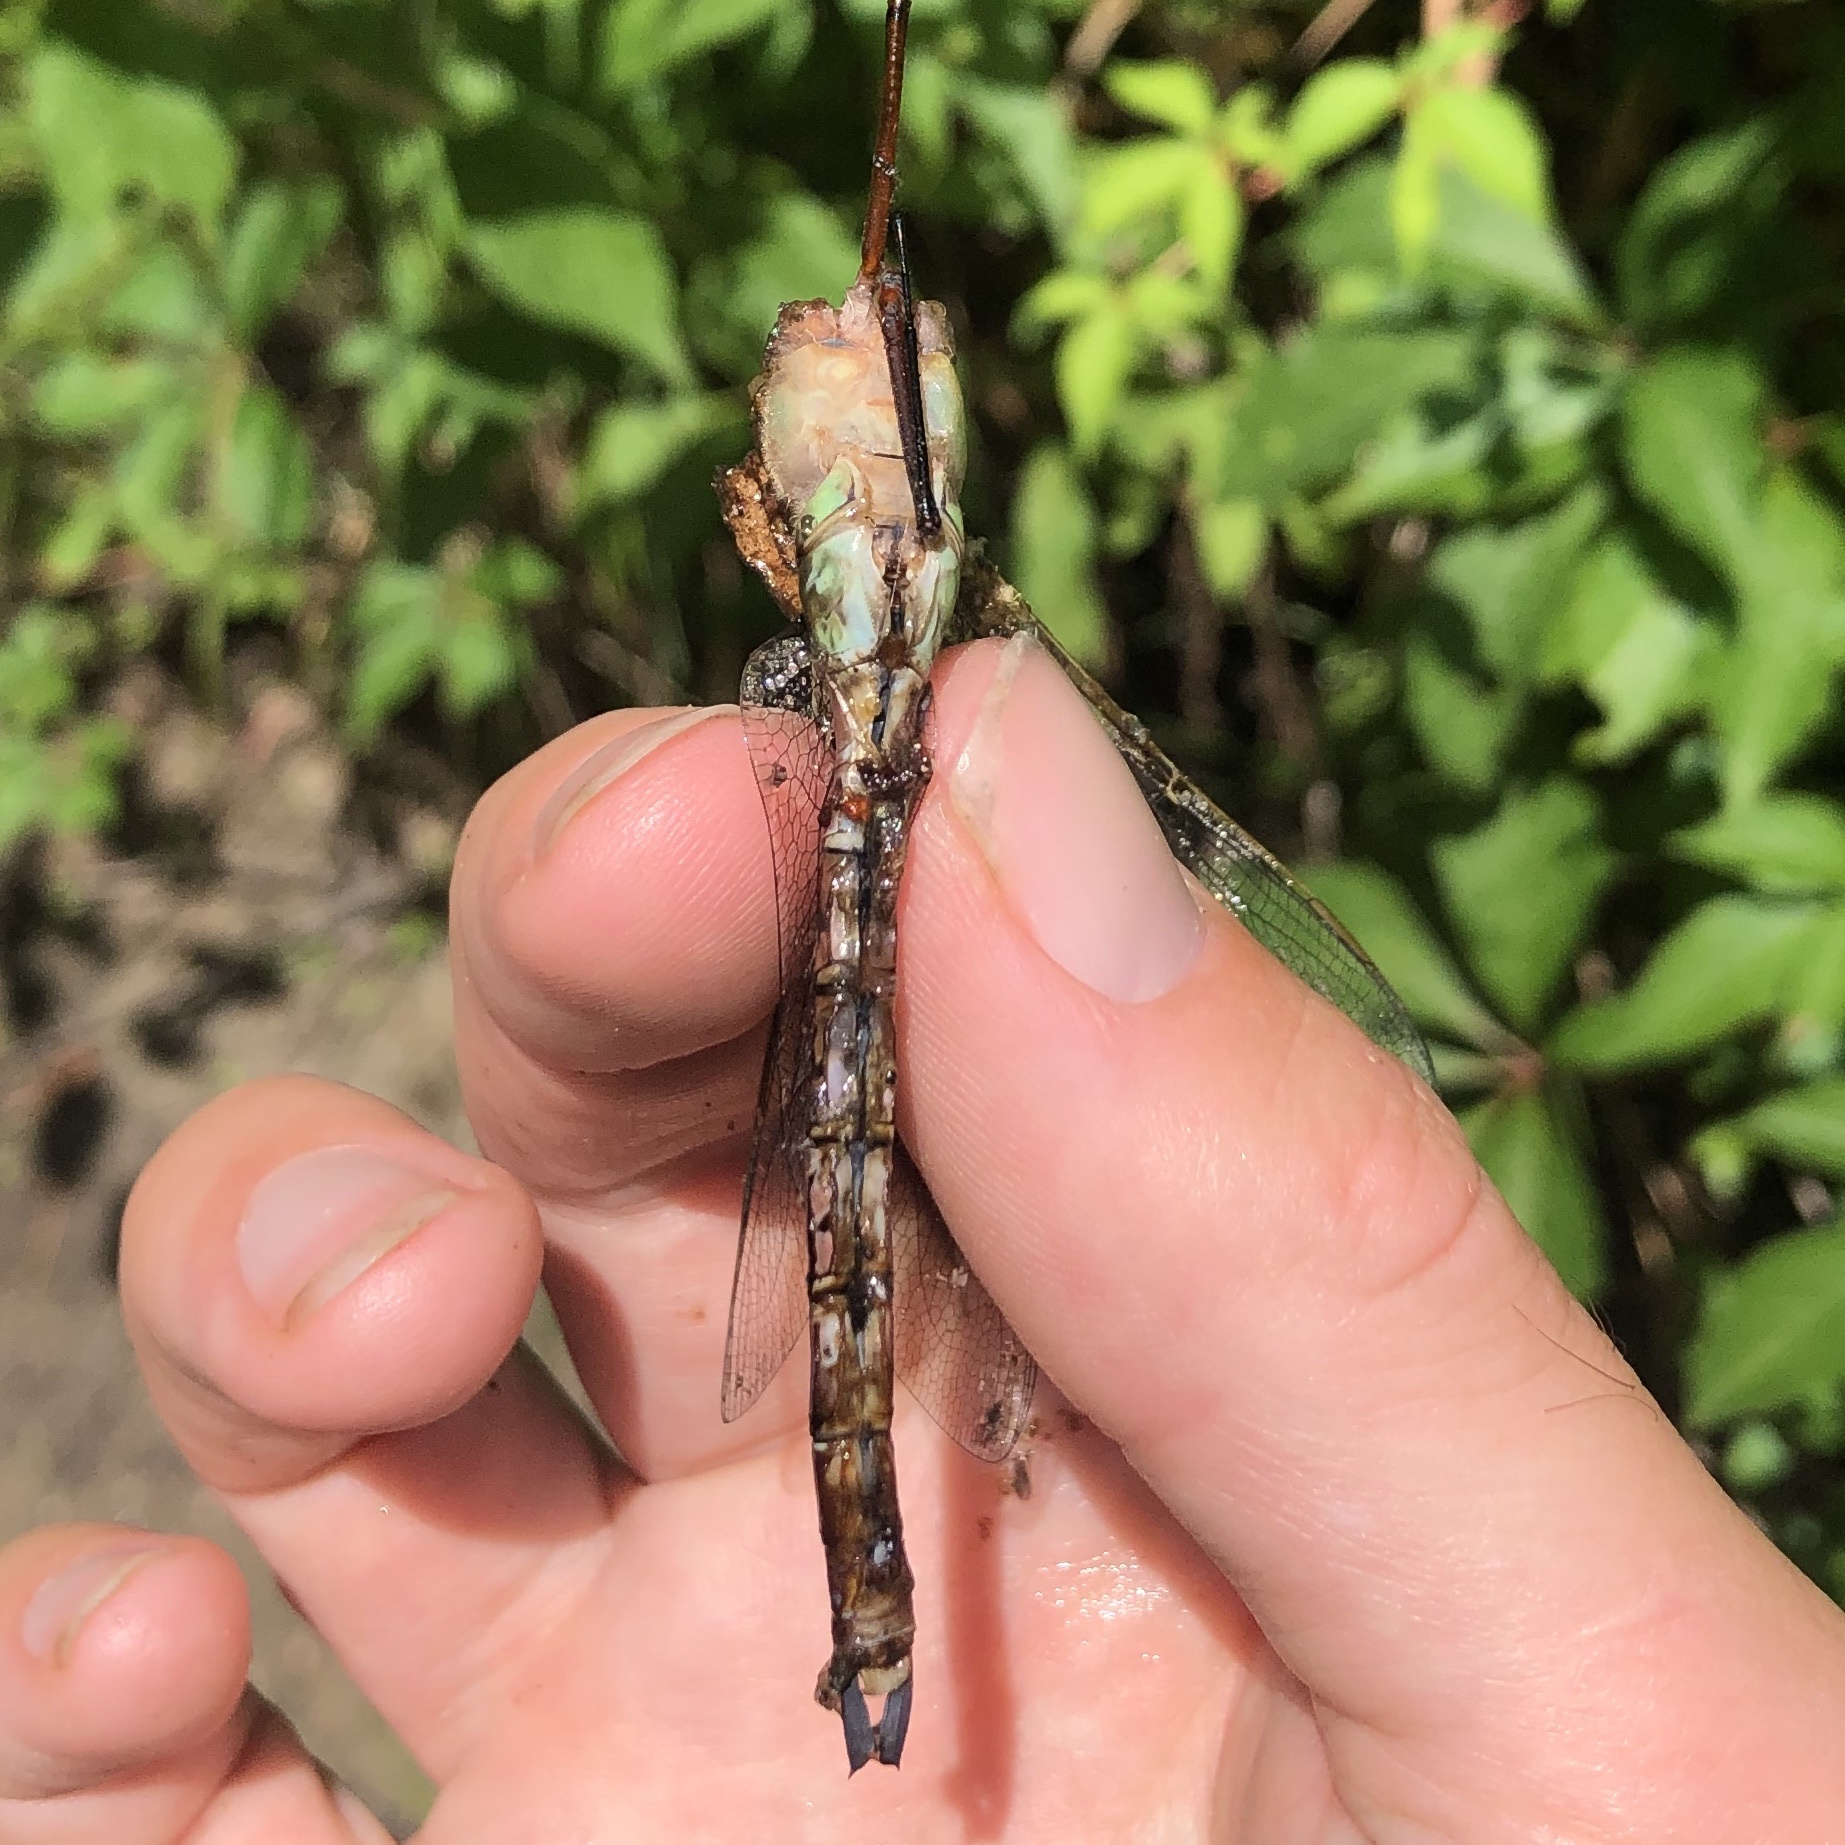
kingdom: Animalia
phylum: Arthropoda
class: Insecta
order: Odonata
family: Aeshnidae
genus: Anax
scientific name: Anax junius
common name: Common green darner
